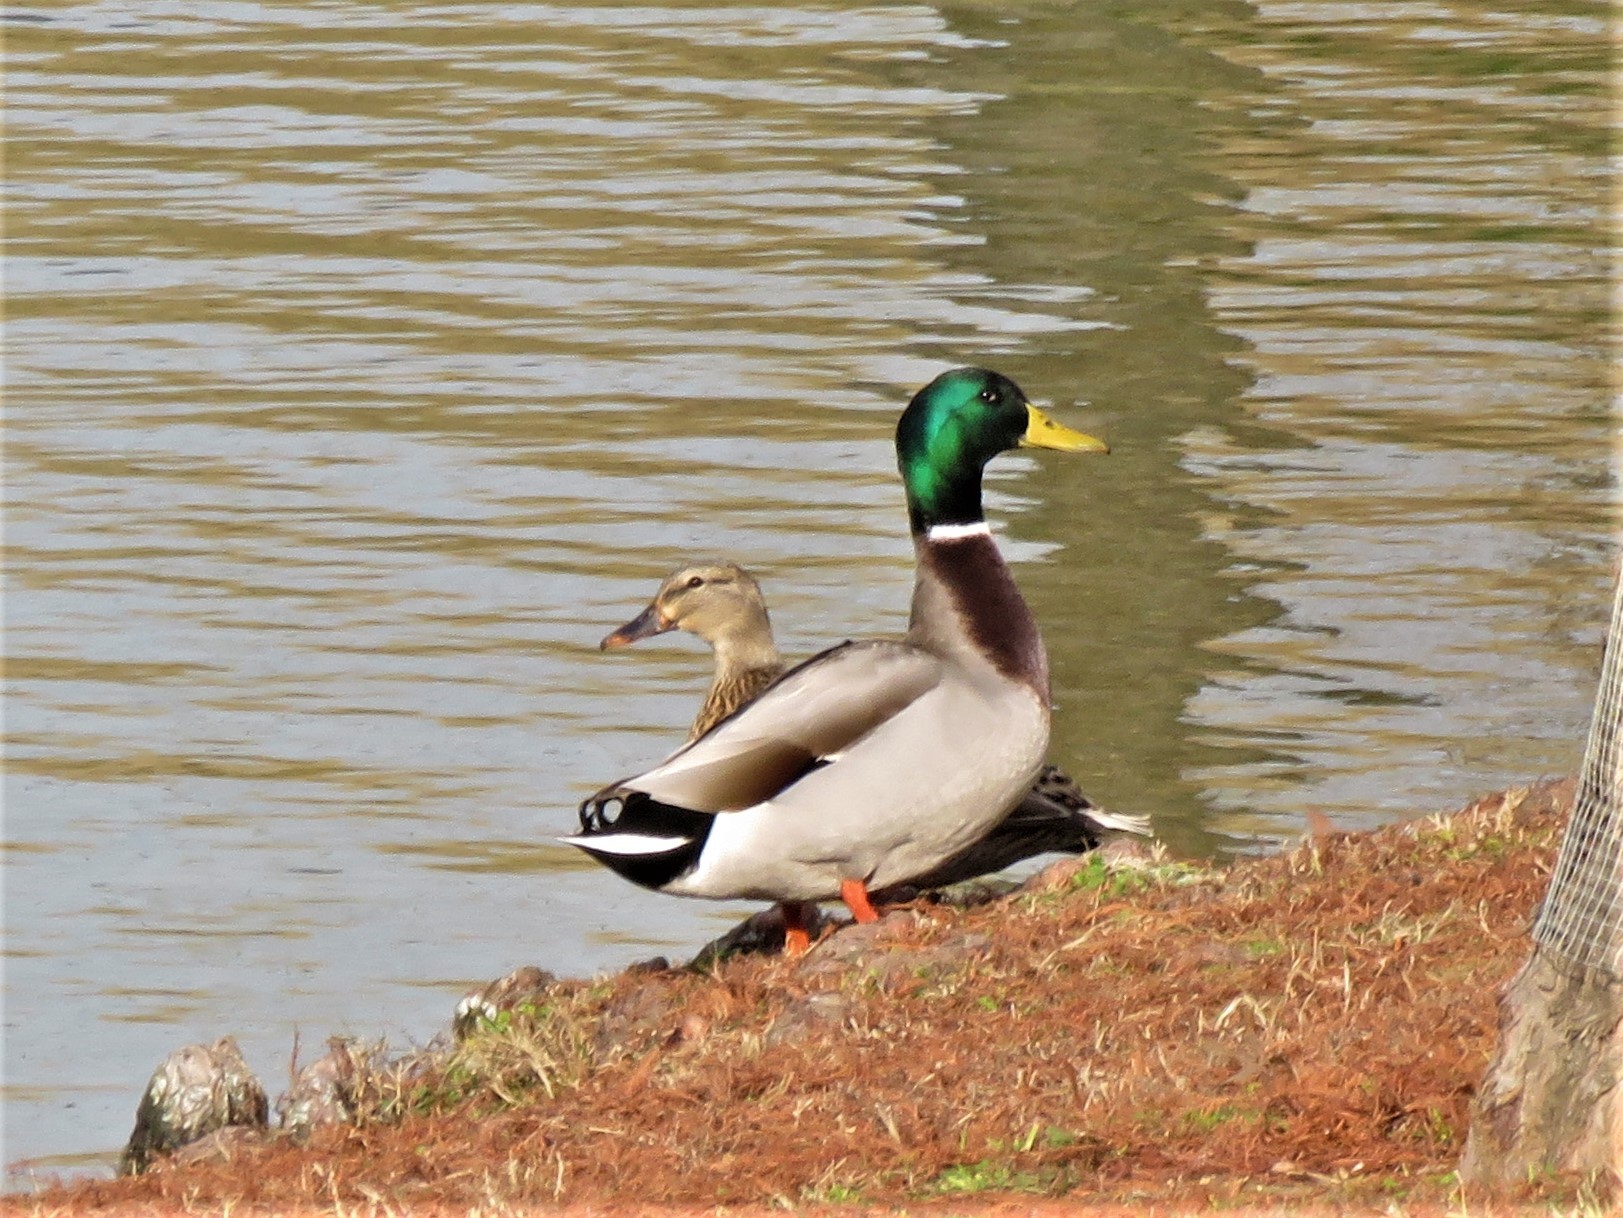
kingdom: Animalia
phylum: Chordata
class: Aves
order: Anseriformes
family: Anatidae
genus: Anas
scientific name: Anas platyrhynchos
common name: Mallard
